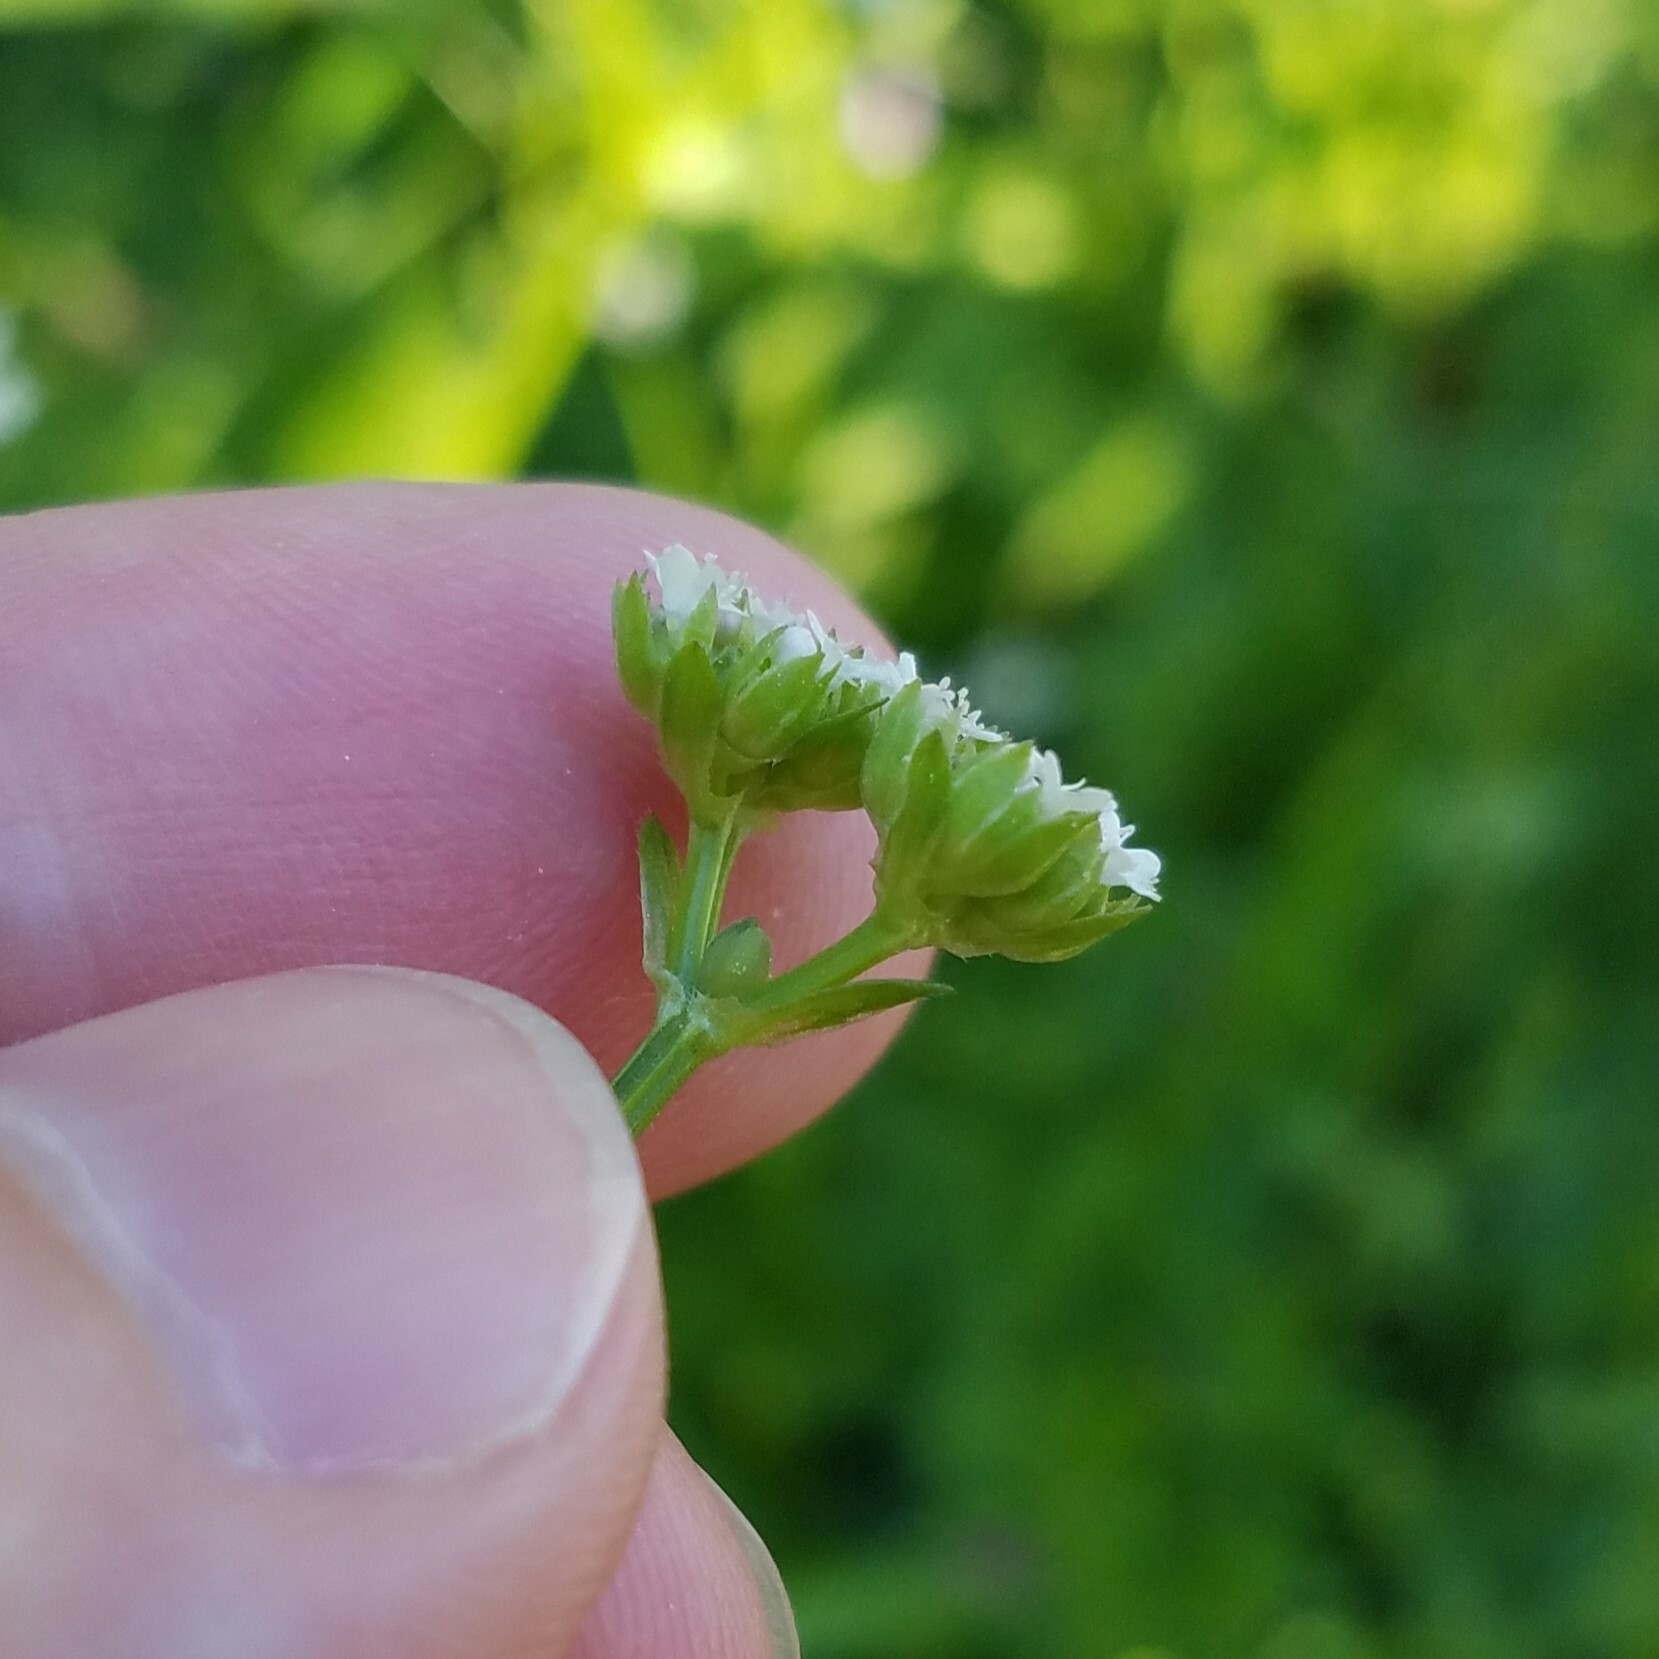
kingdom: Plantae
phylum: Tracheophyta
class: Magnoliopsida
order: Dipsacales
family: Caprifoliaceae
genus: Valerianella
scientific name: Valerianella radiata
